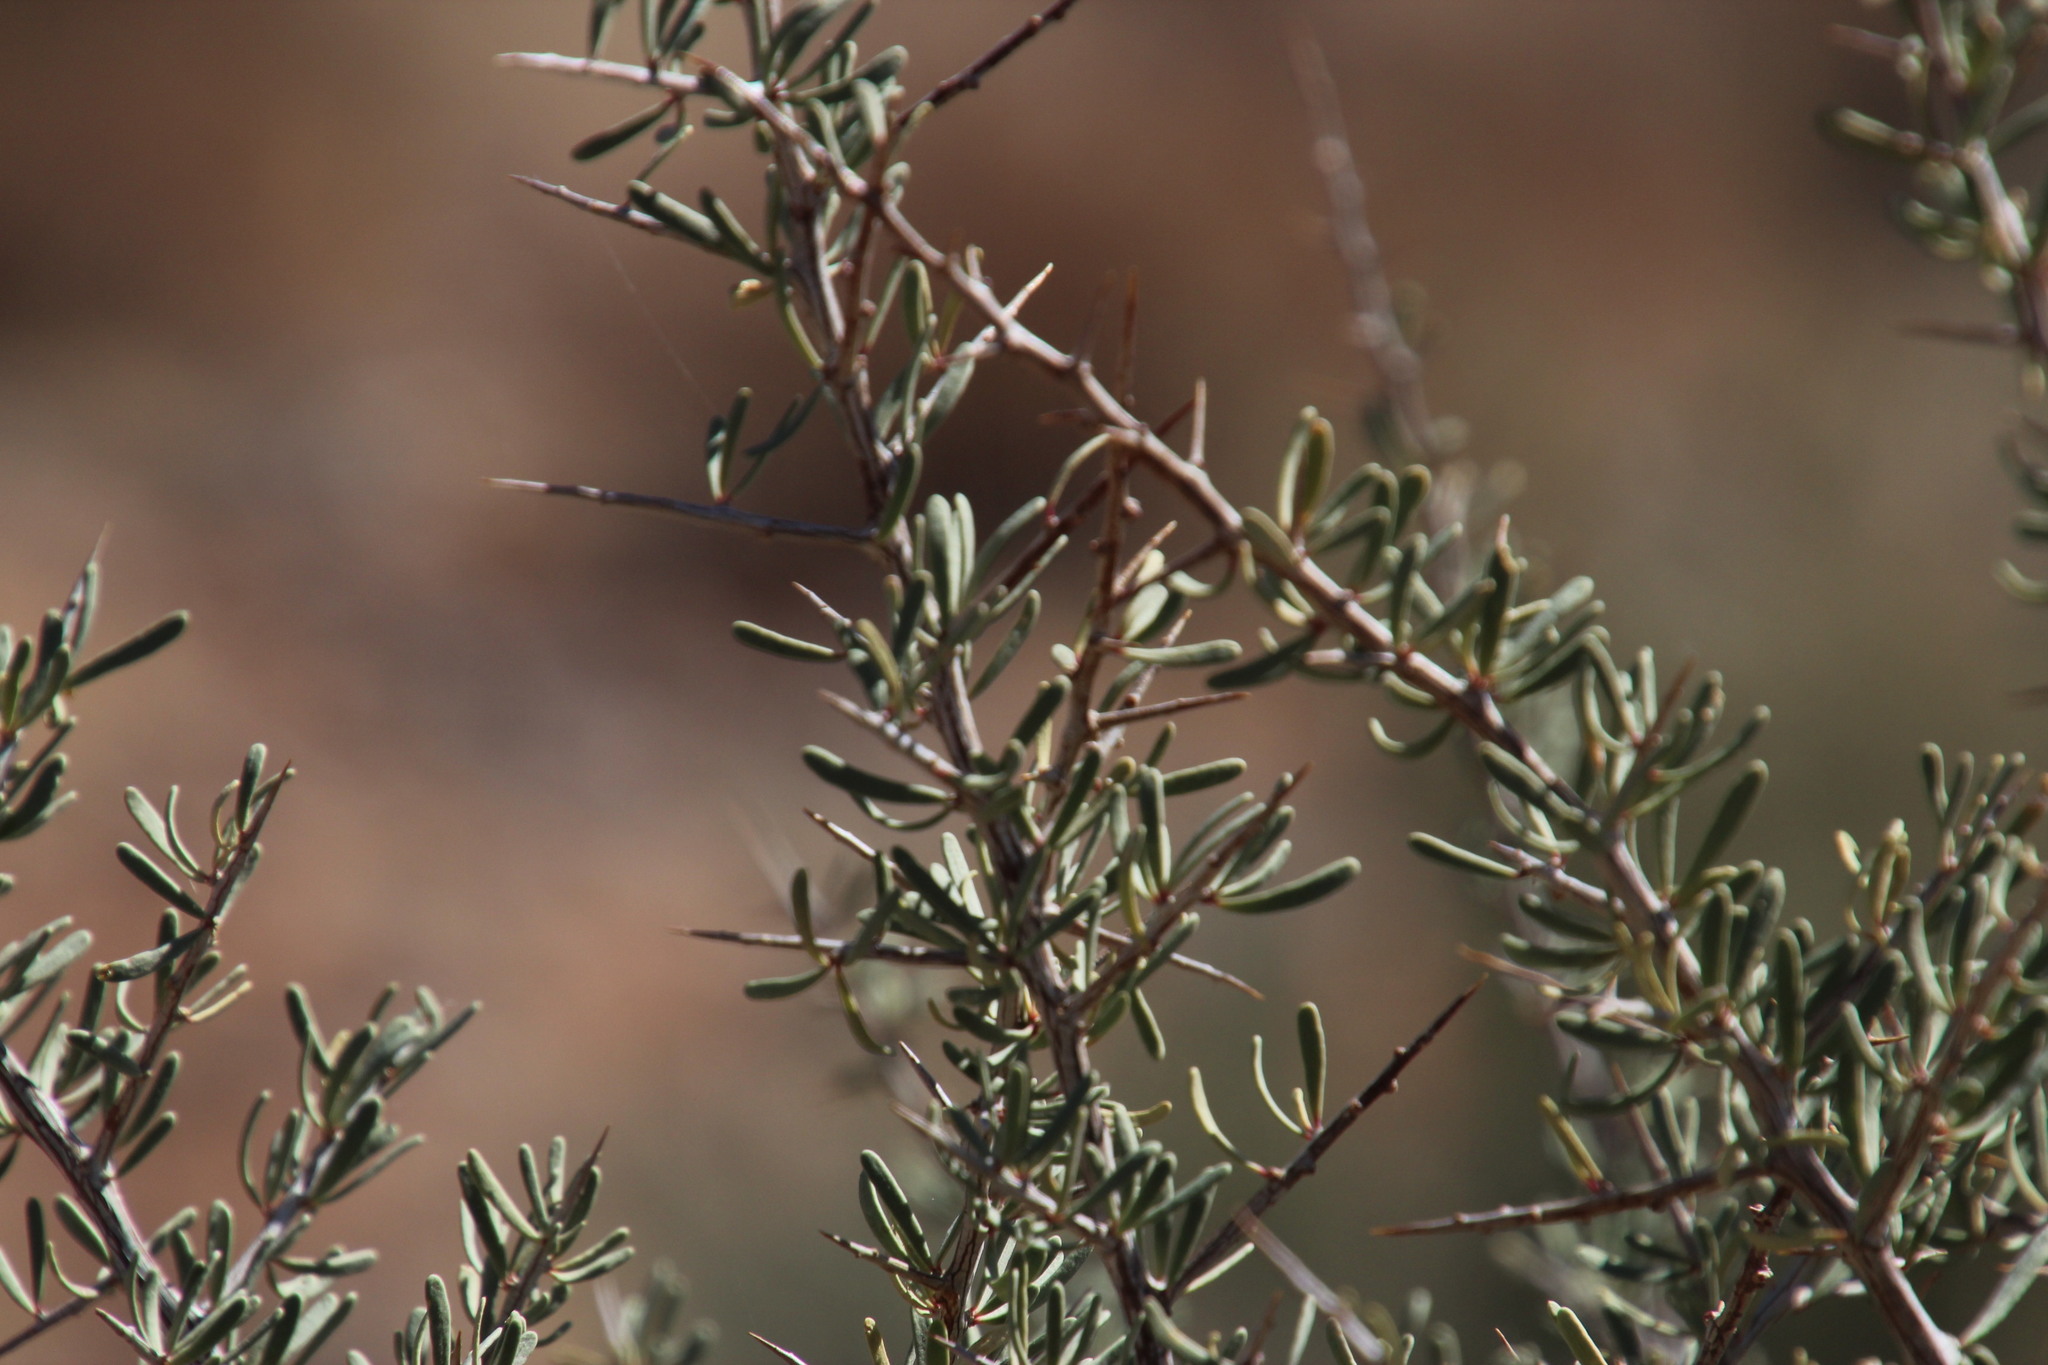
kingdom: Plantae
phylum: Tracheophyta
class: Magnoliopsida
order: Caryophyllales
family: Nyctaginaceae
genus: Phaeoptilum
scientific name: Phaeoptilum spinosum
